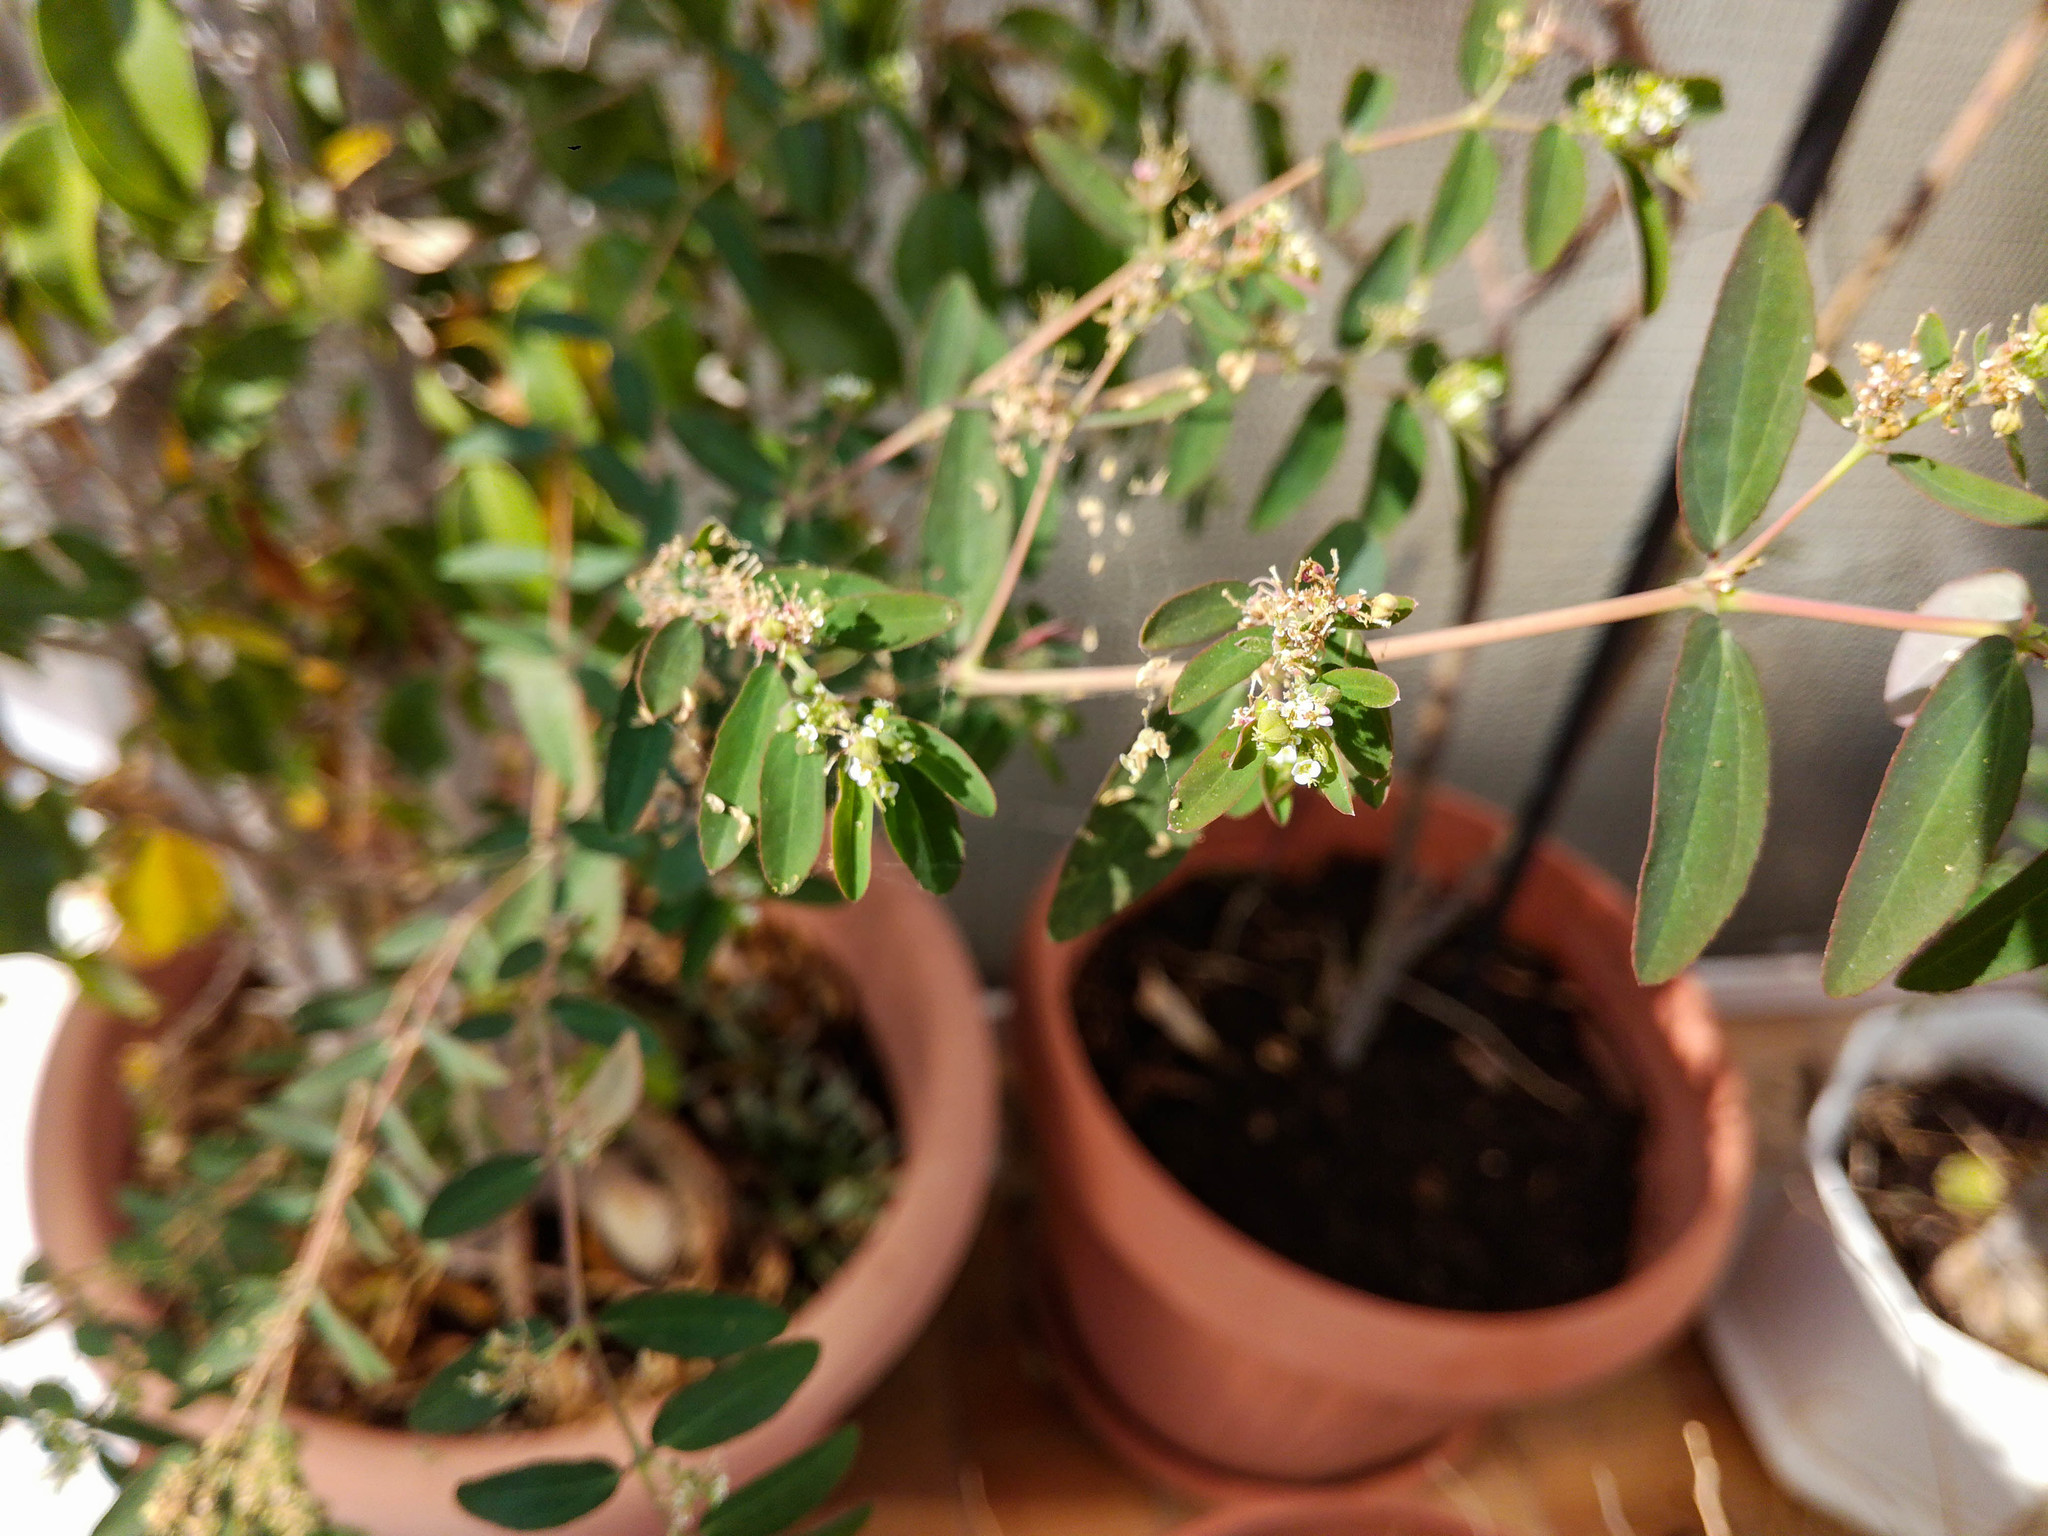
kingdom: Plantae
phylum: Tracheophyta
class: Magnoliopsida
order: Malpighiales
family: Euphorbiaceae
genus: Euphorbia
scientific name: Euphorbia hypericifolia
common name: Graceful sandmat
